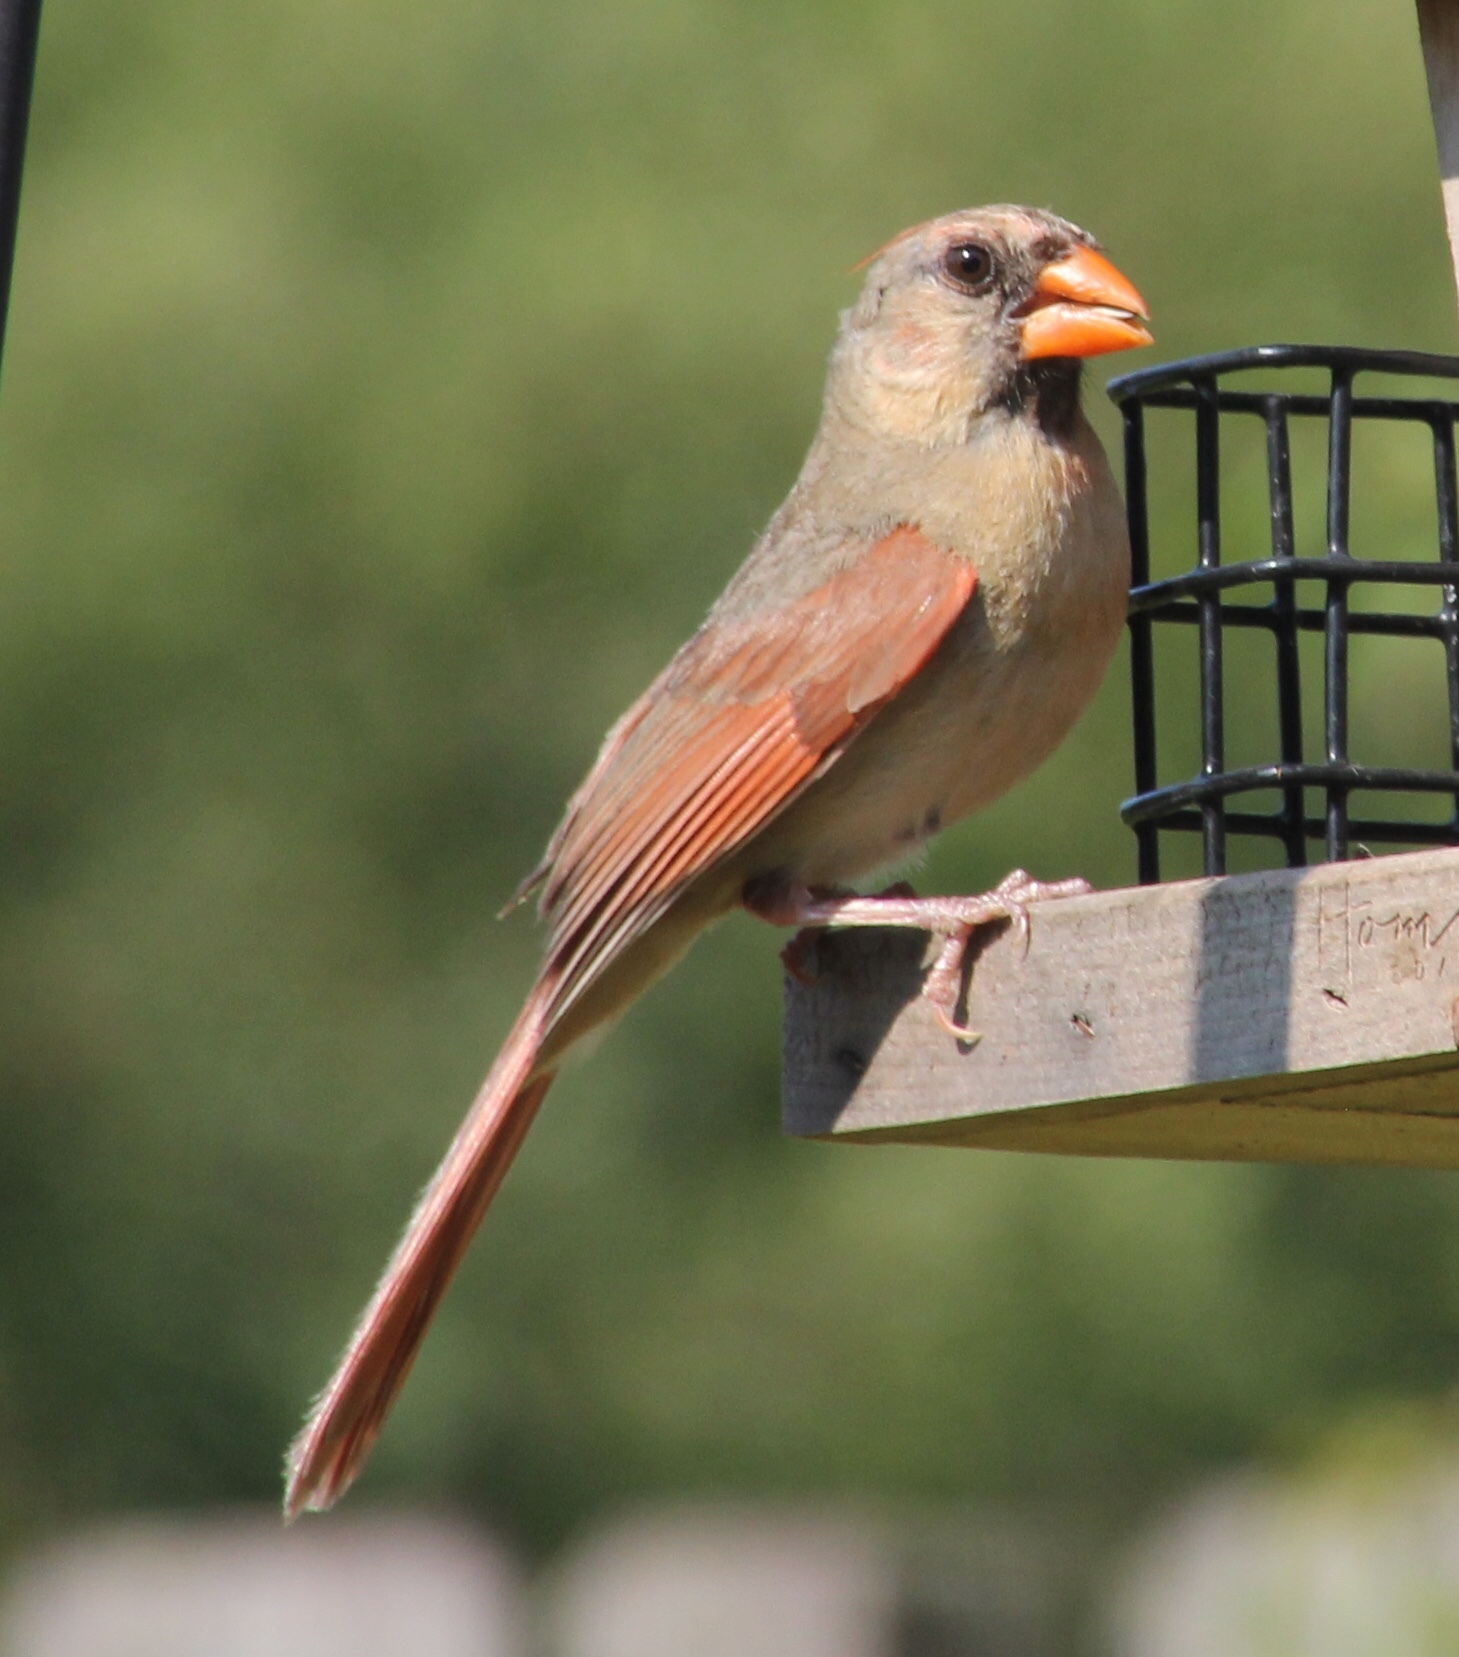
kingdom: Animalia
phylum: Chordata
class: Aves
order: Passeriformes
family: Cardinalidae
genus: Cardinalis
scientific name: Cardinalis cardinalis
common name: Northern cardinal
